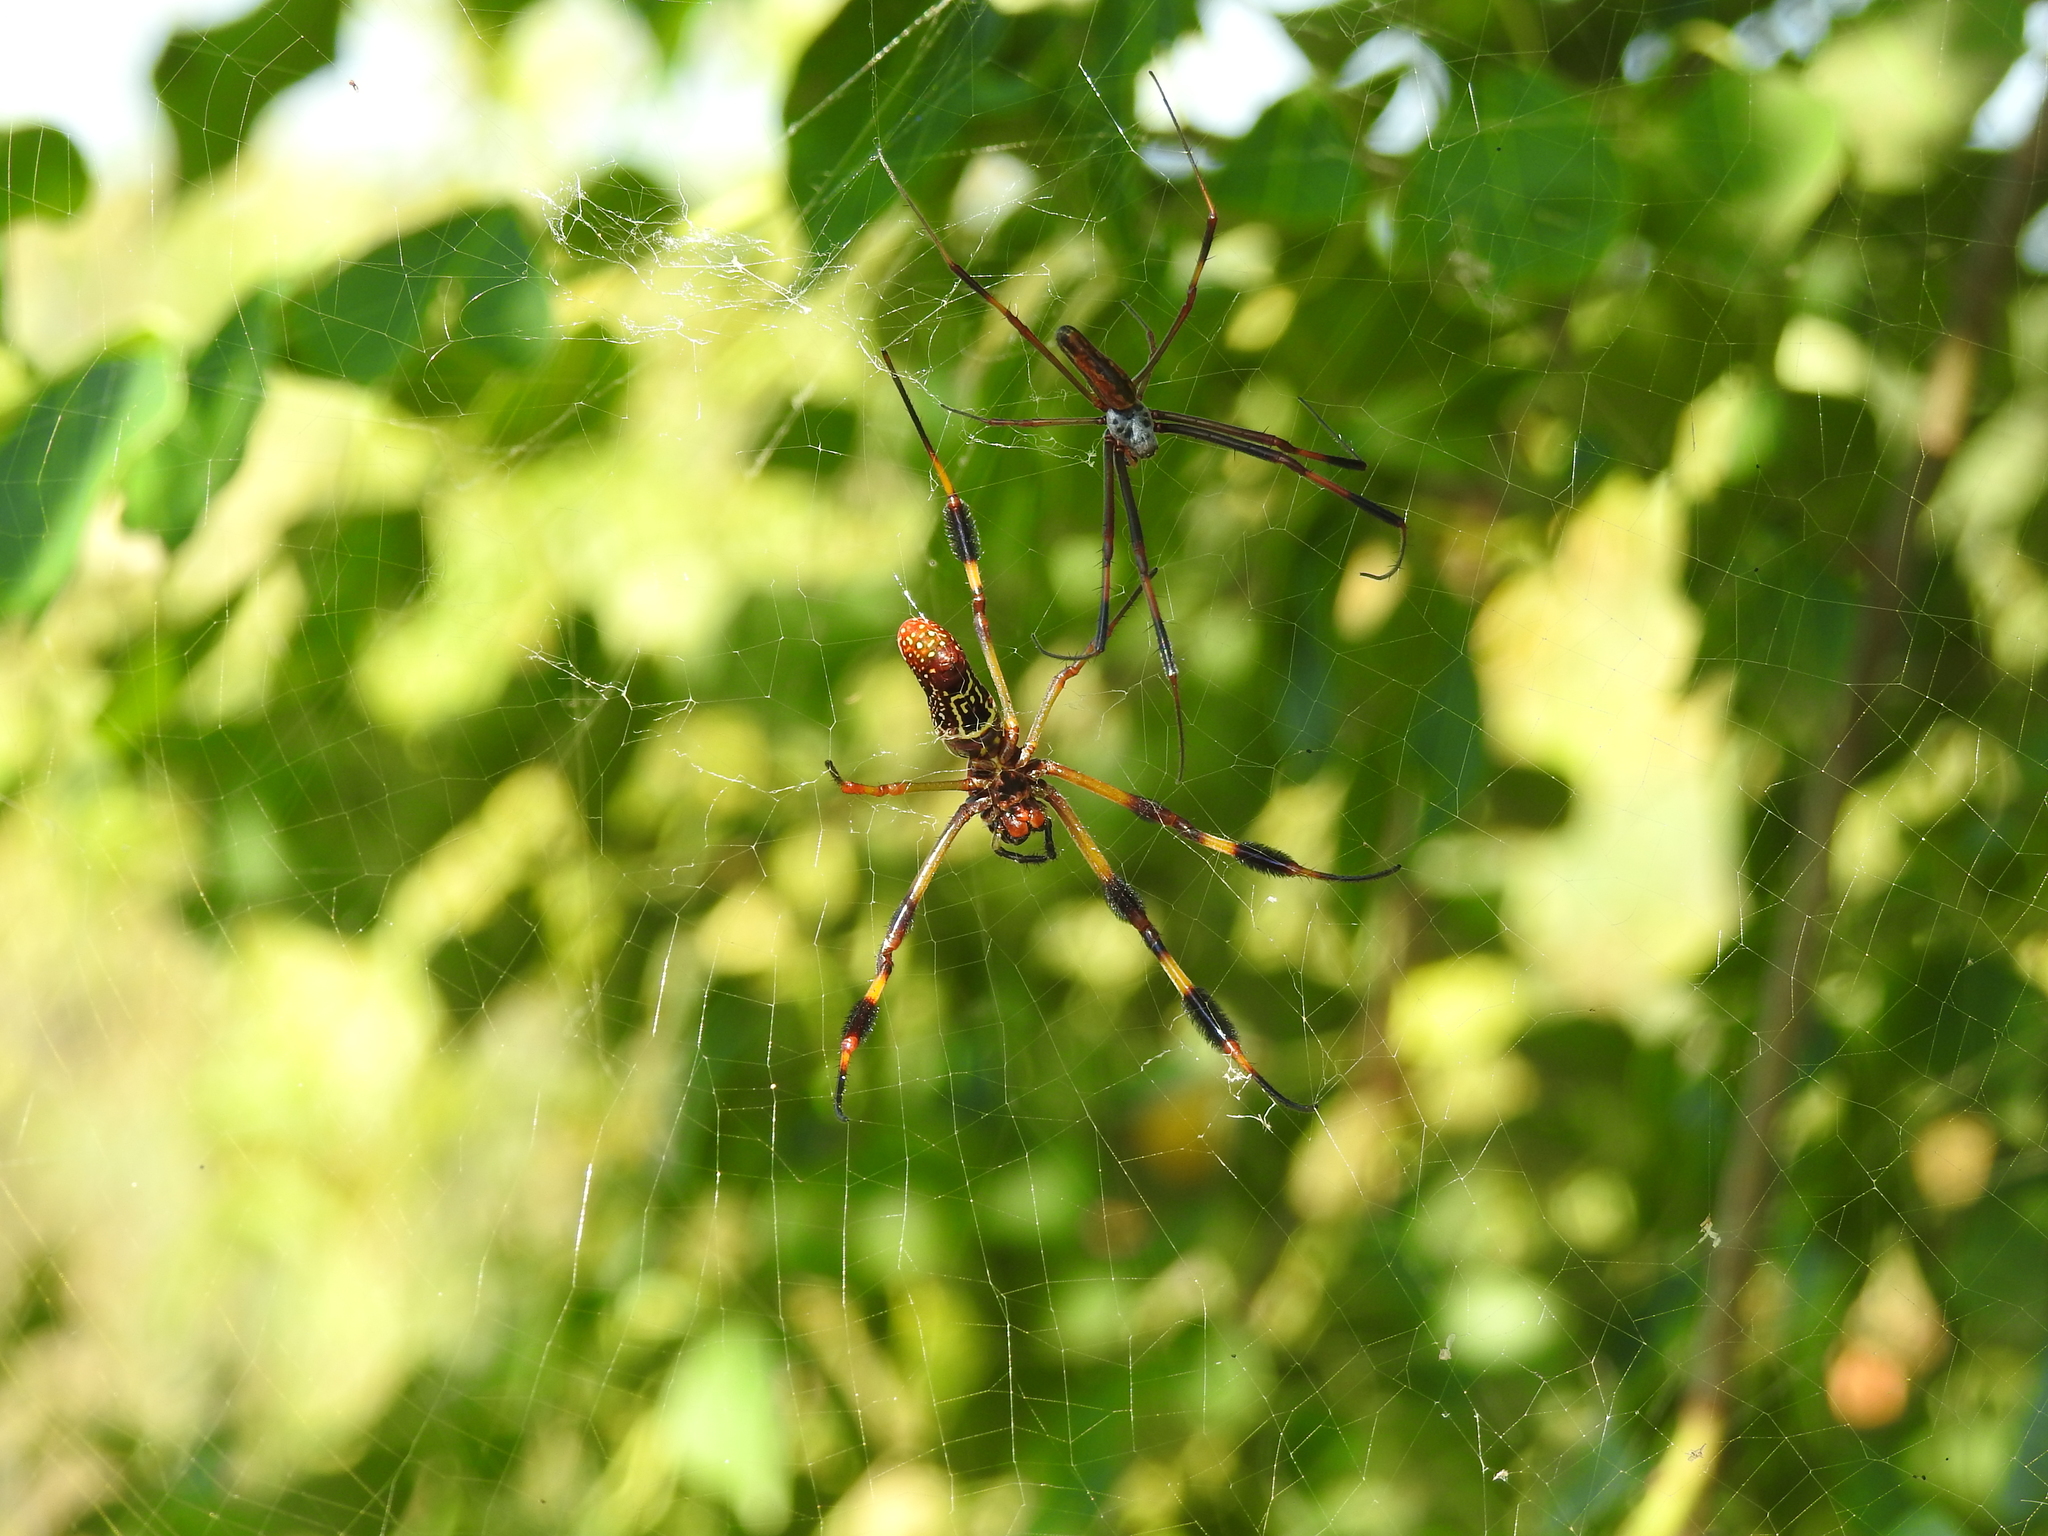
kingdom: Animalia
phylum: Arthropoda
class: Arachnida
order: Araneae
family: Araneidae
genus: Trichonephila
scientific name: Trichonephila clavipes
